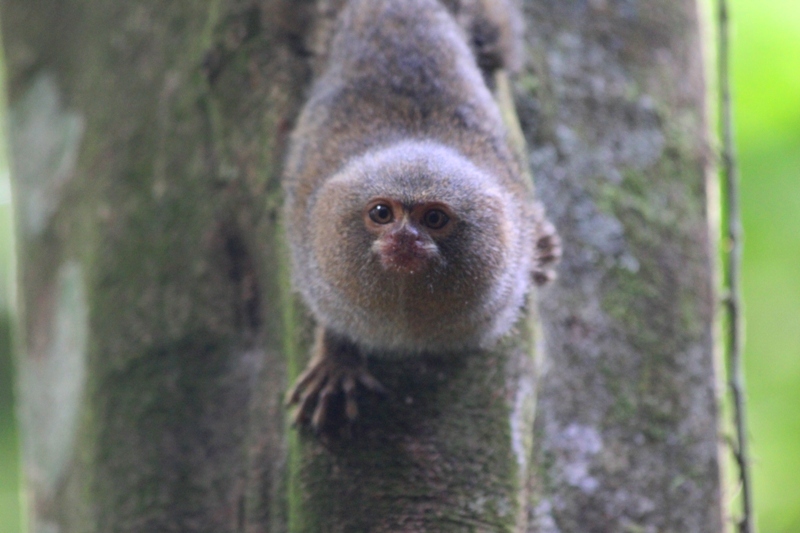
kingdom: Animalia
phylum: Chordata
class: Mammalia
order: Primates
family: Callitrichidae
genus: Cebuella
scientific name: Cebuella pygmaea
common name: Pygmy marmoset
